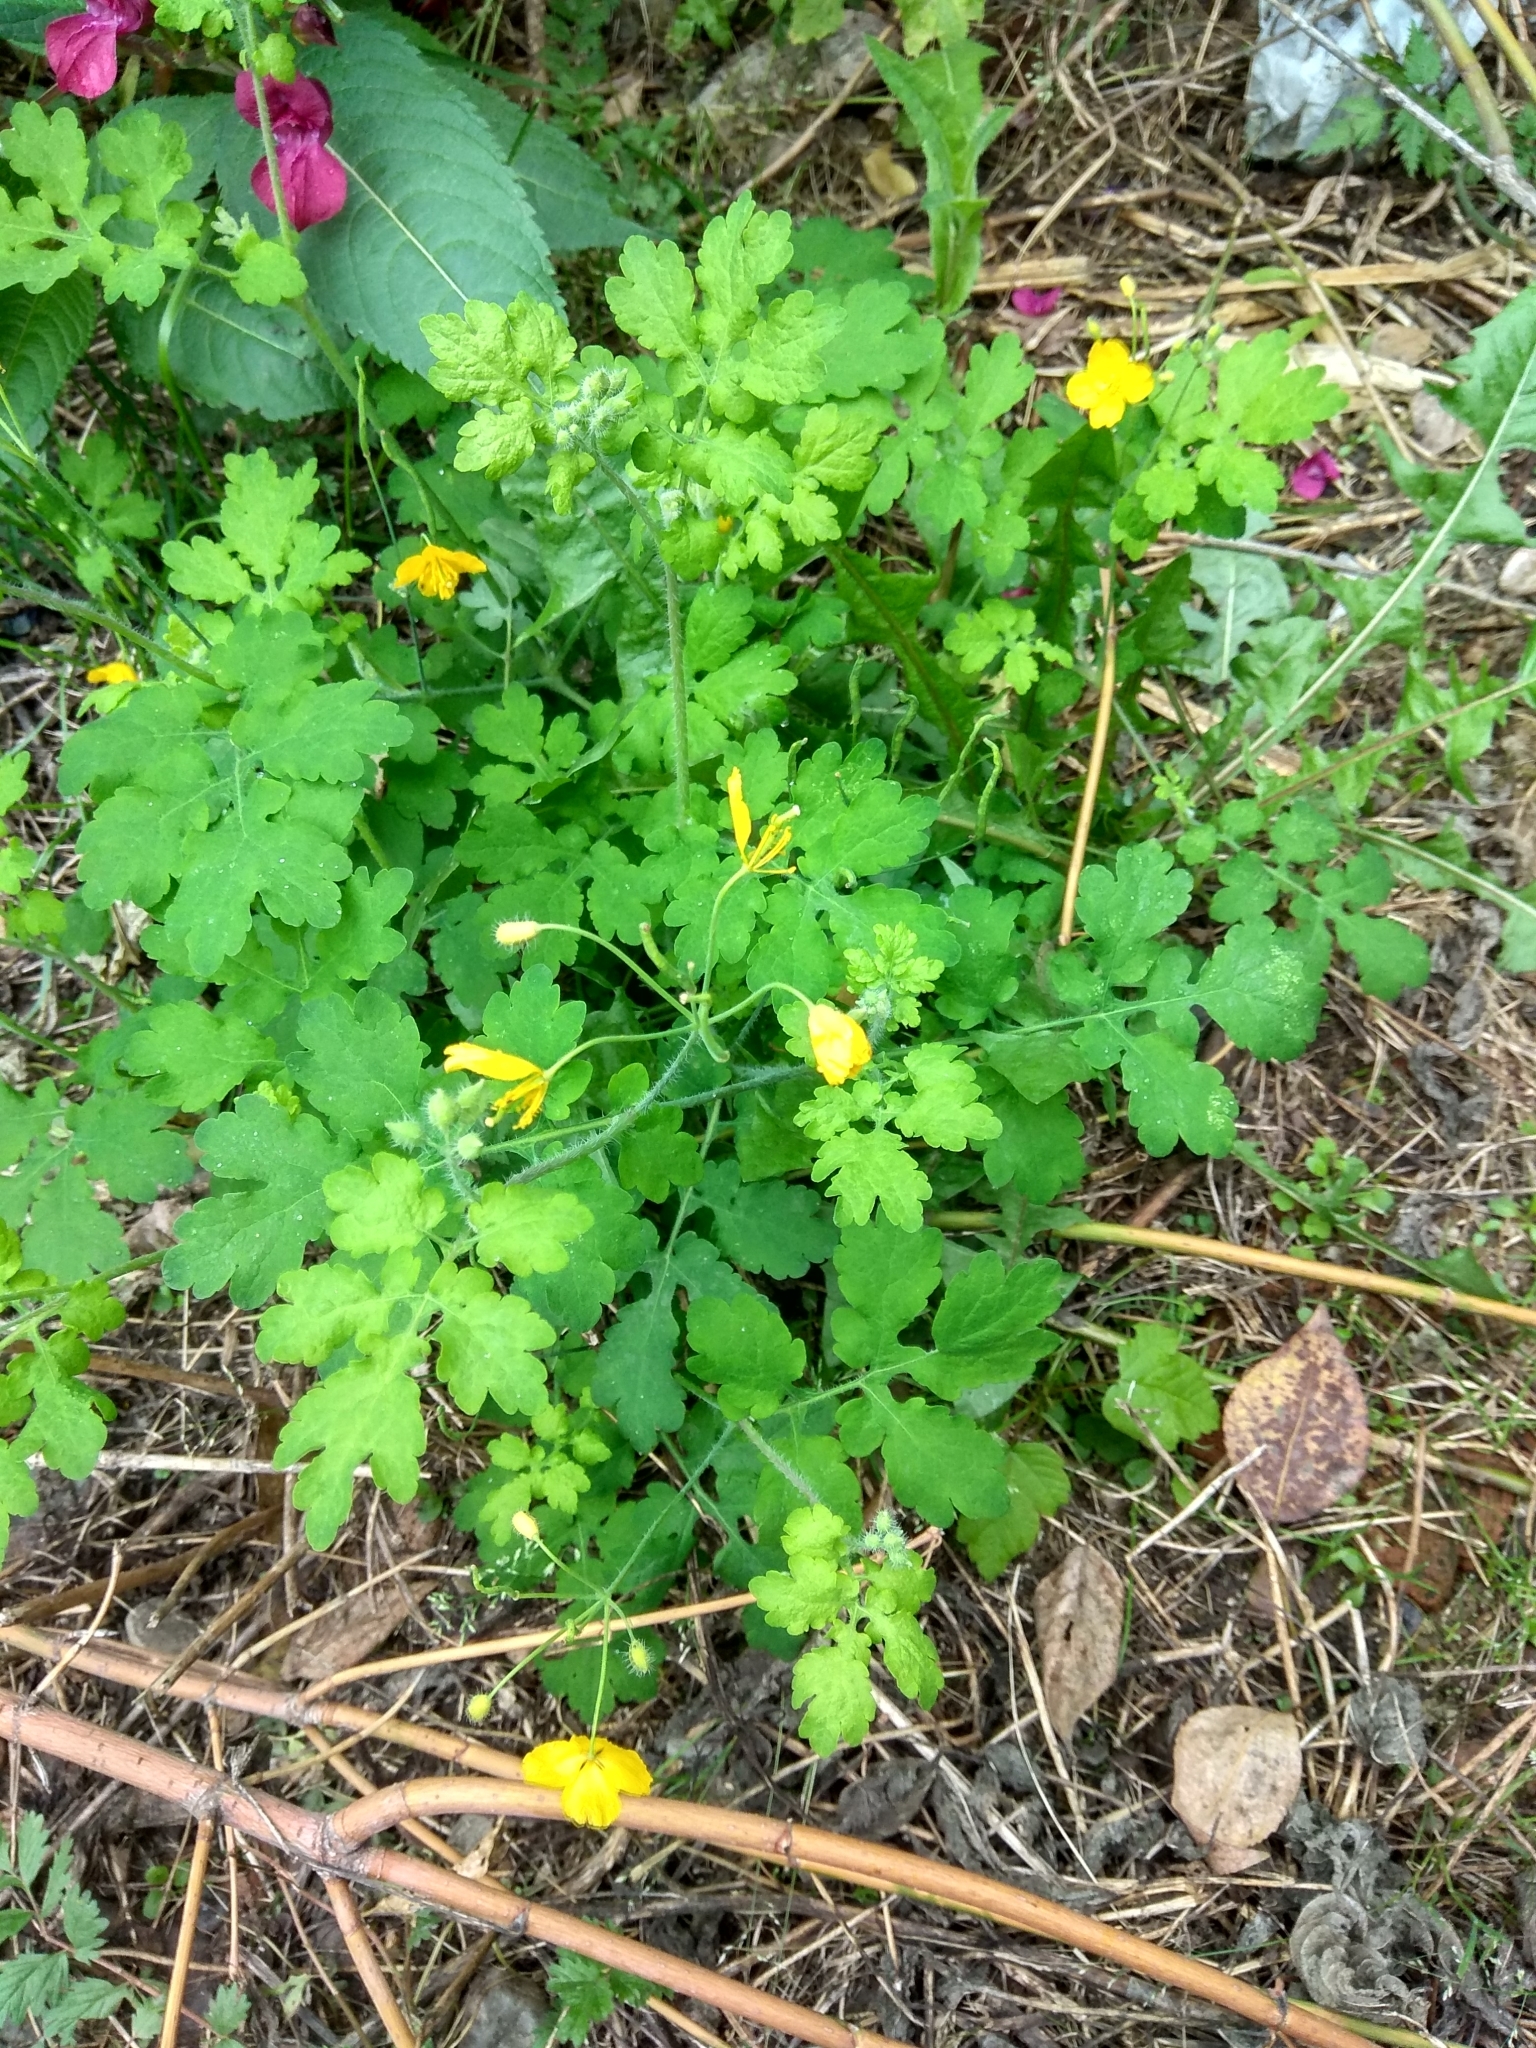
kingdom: Plantae
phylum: Tracheophyta
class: Magnoliopsida
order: Ranunculales
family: Papaveraceae
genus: Chelidonium
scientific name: Chelidonium majus
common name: Greater celandine
